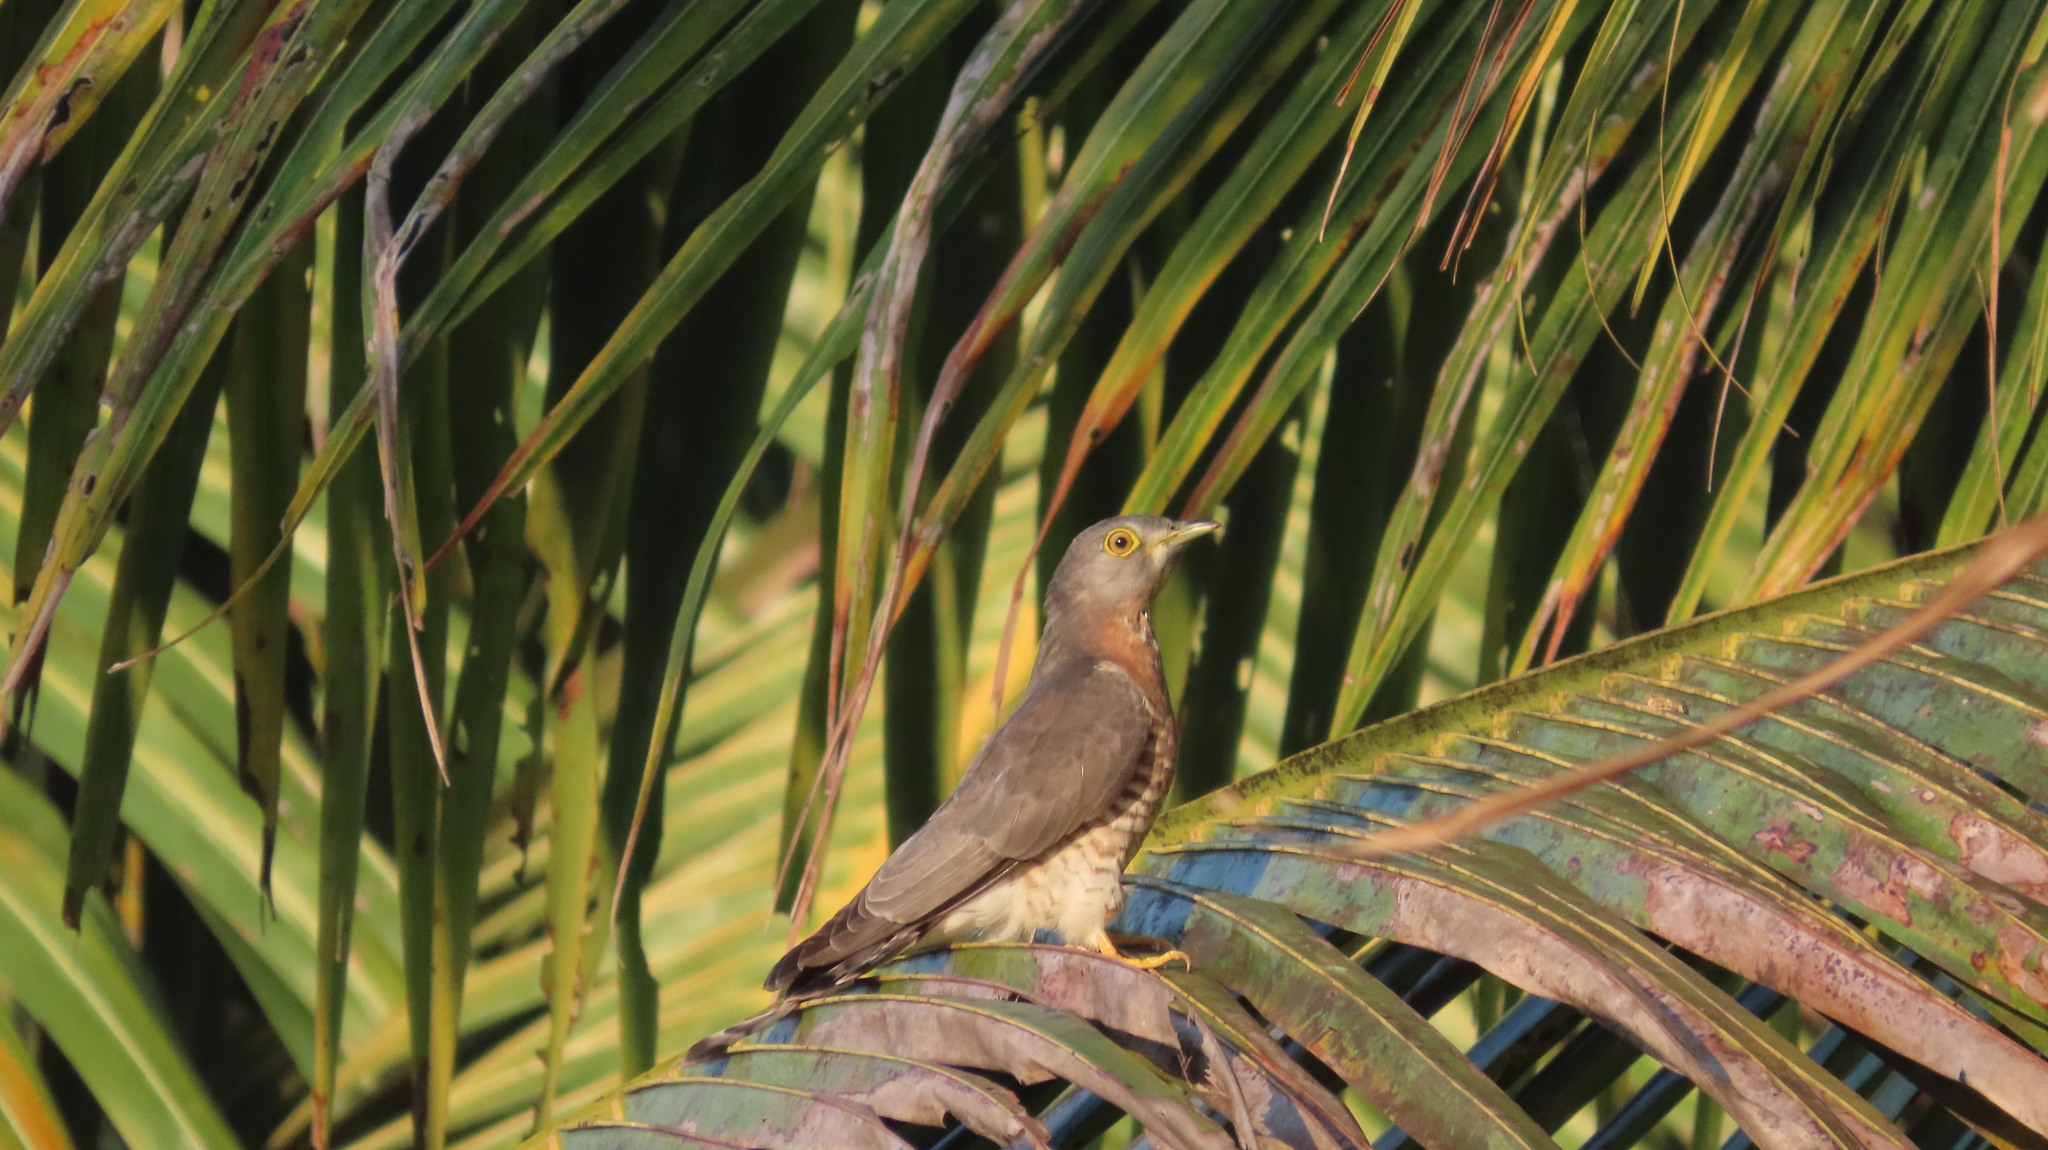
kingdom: Animalia
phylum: Chordata
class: Aves
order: Cuculiformes
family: Cuculidae
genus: Cuculus
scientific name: Cuculus varius
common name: Common hawk cuckoo
